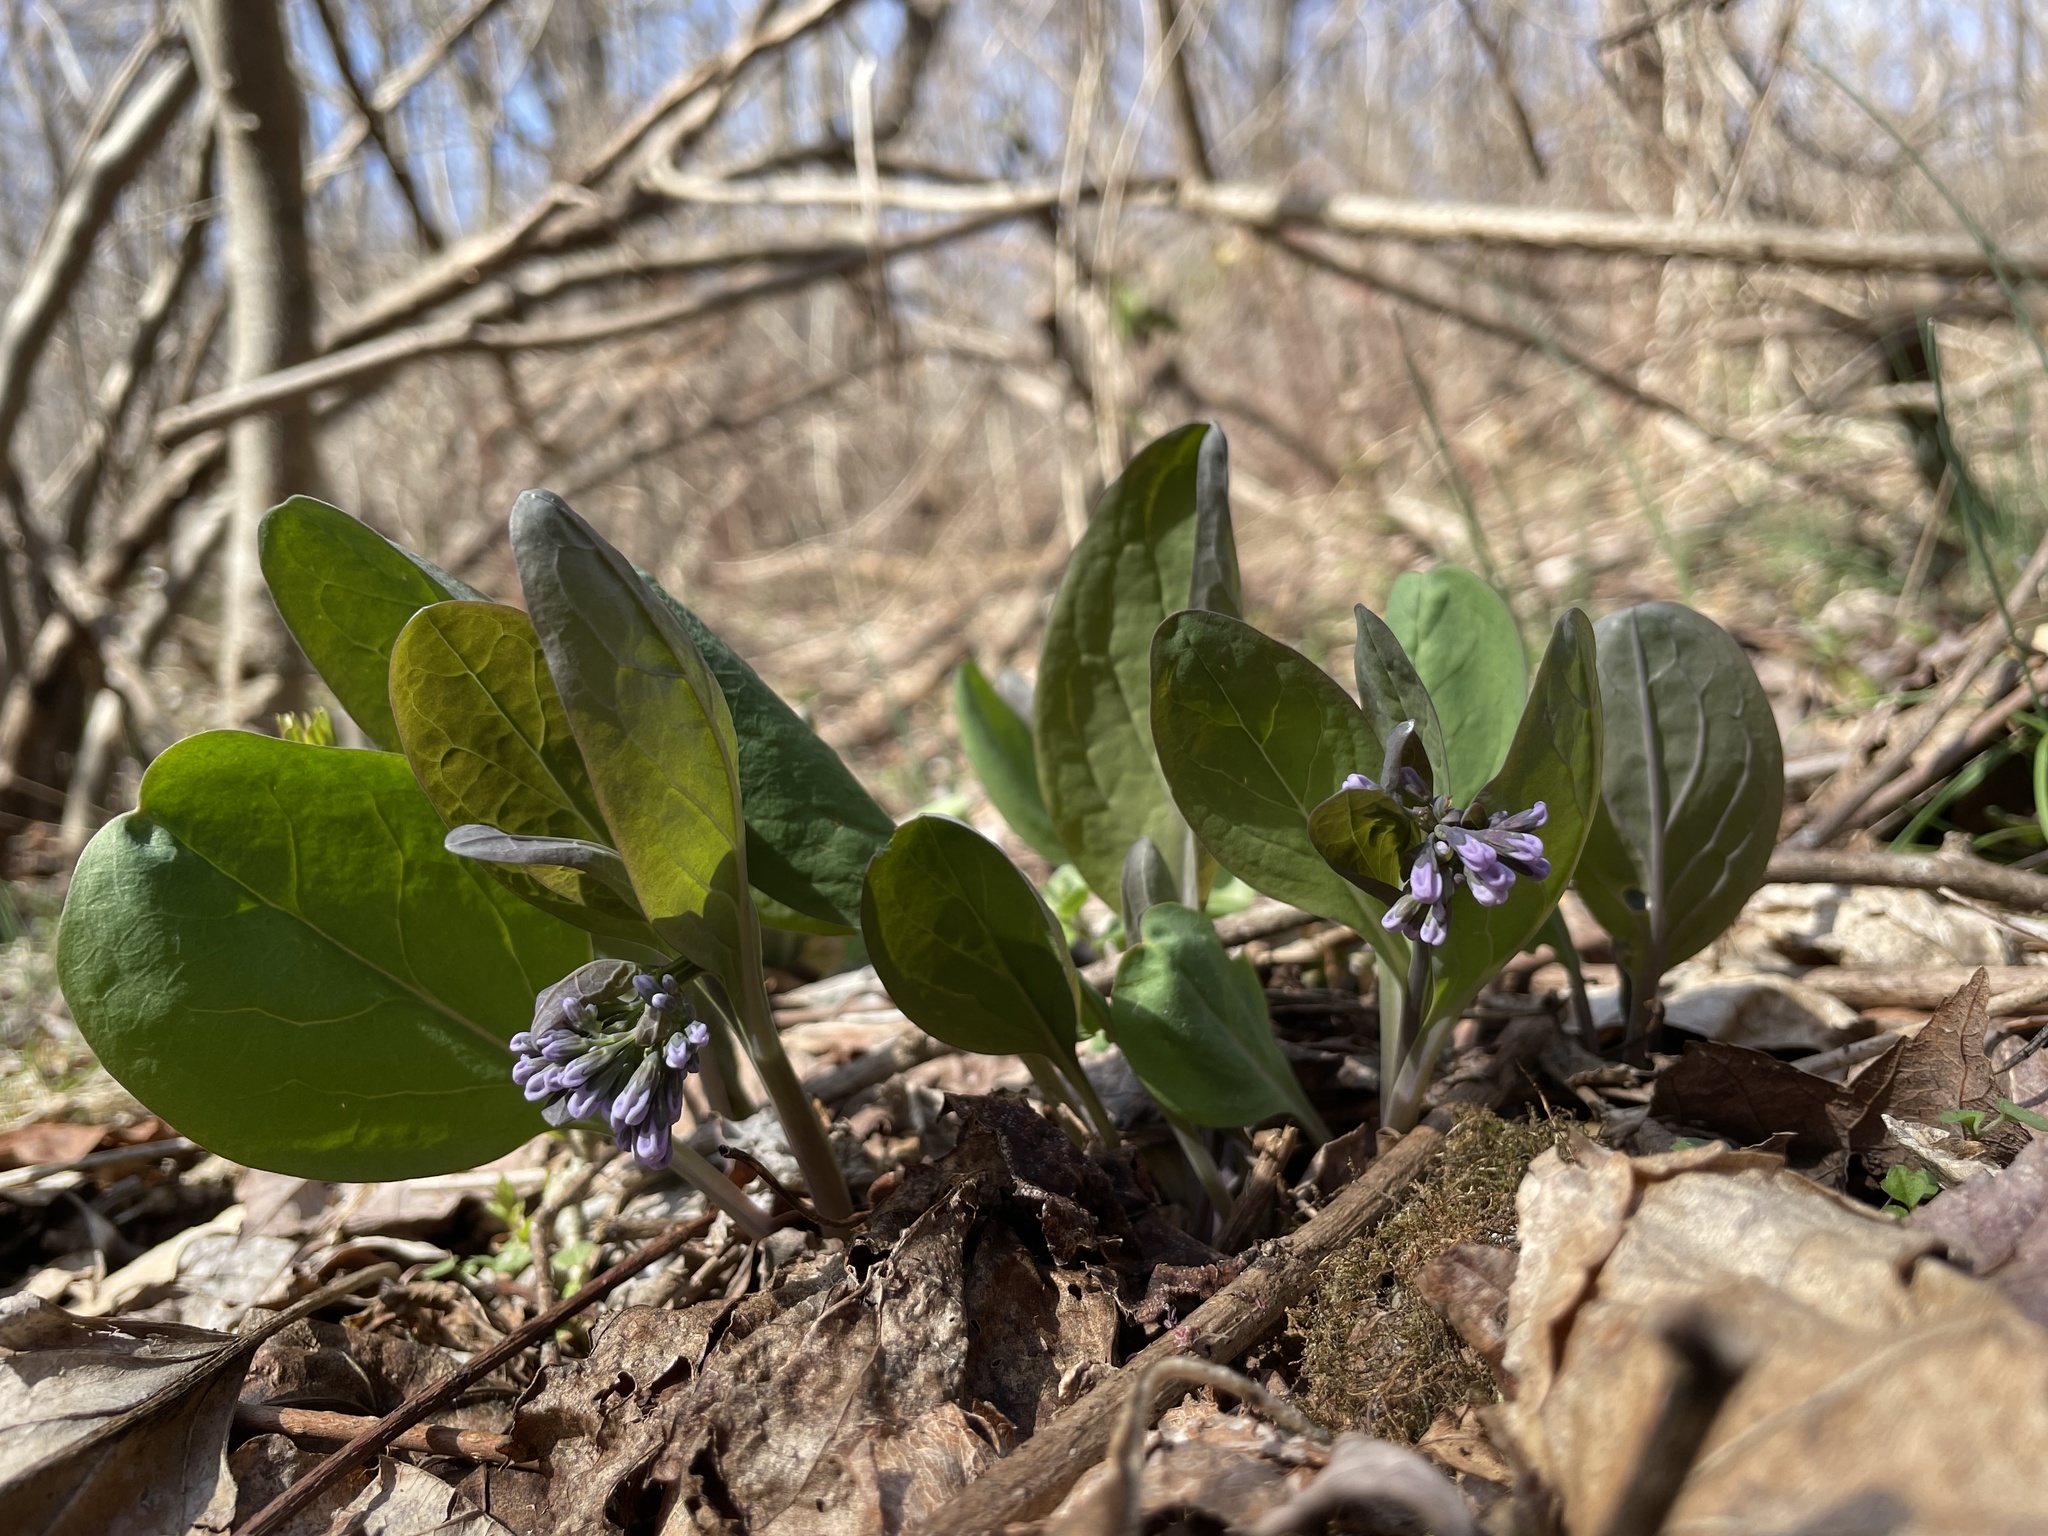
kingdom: Plantae
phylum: Tracheophyta
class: Magnoliopsida
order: Boraginales
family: Boraginaceae
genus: Mertensia
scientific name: Mertensia virginica
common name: Virginia bluebells
